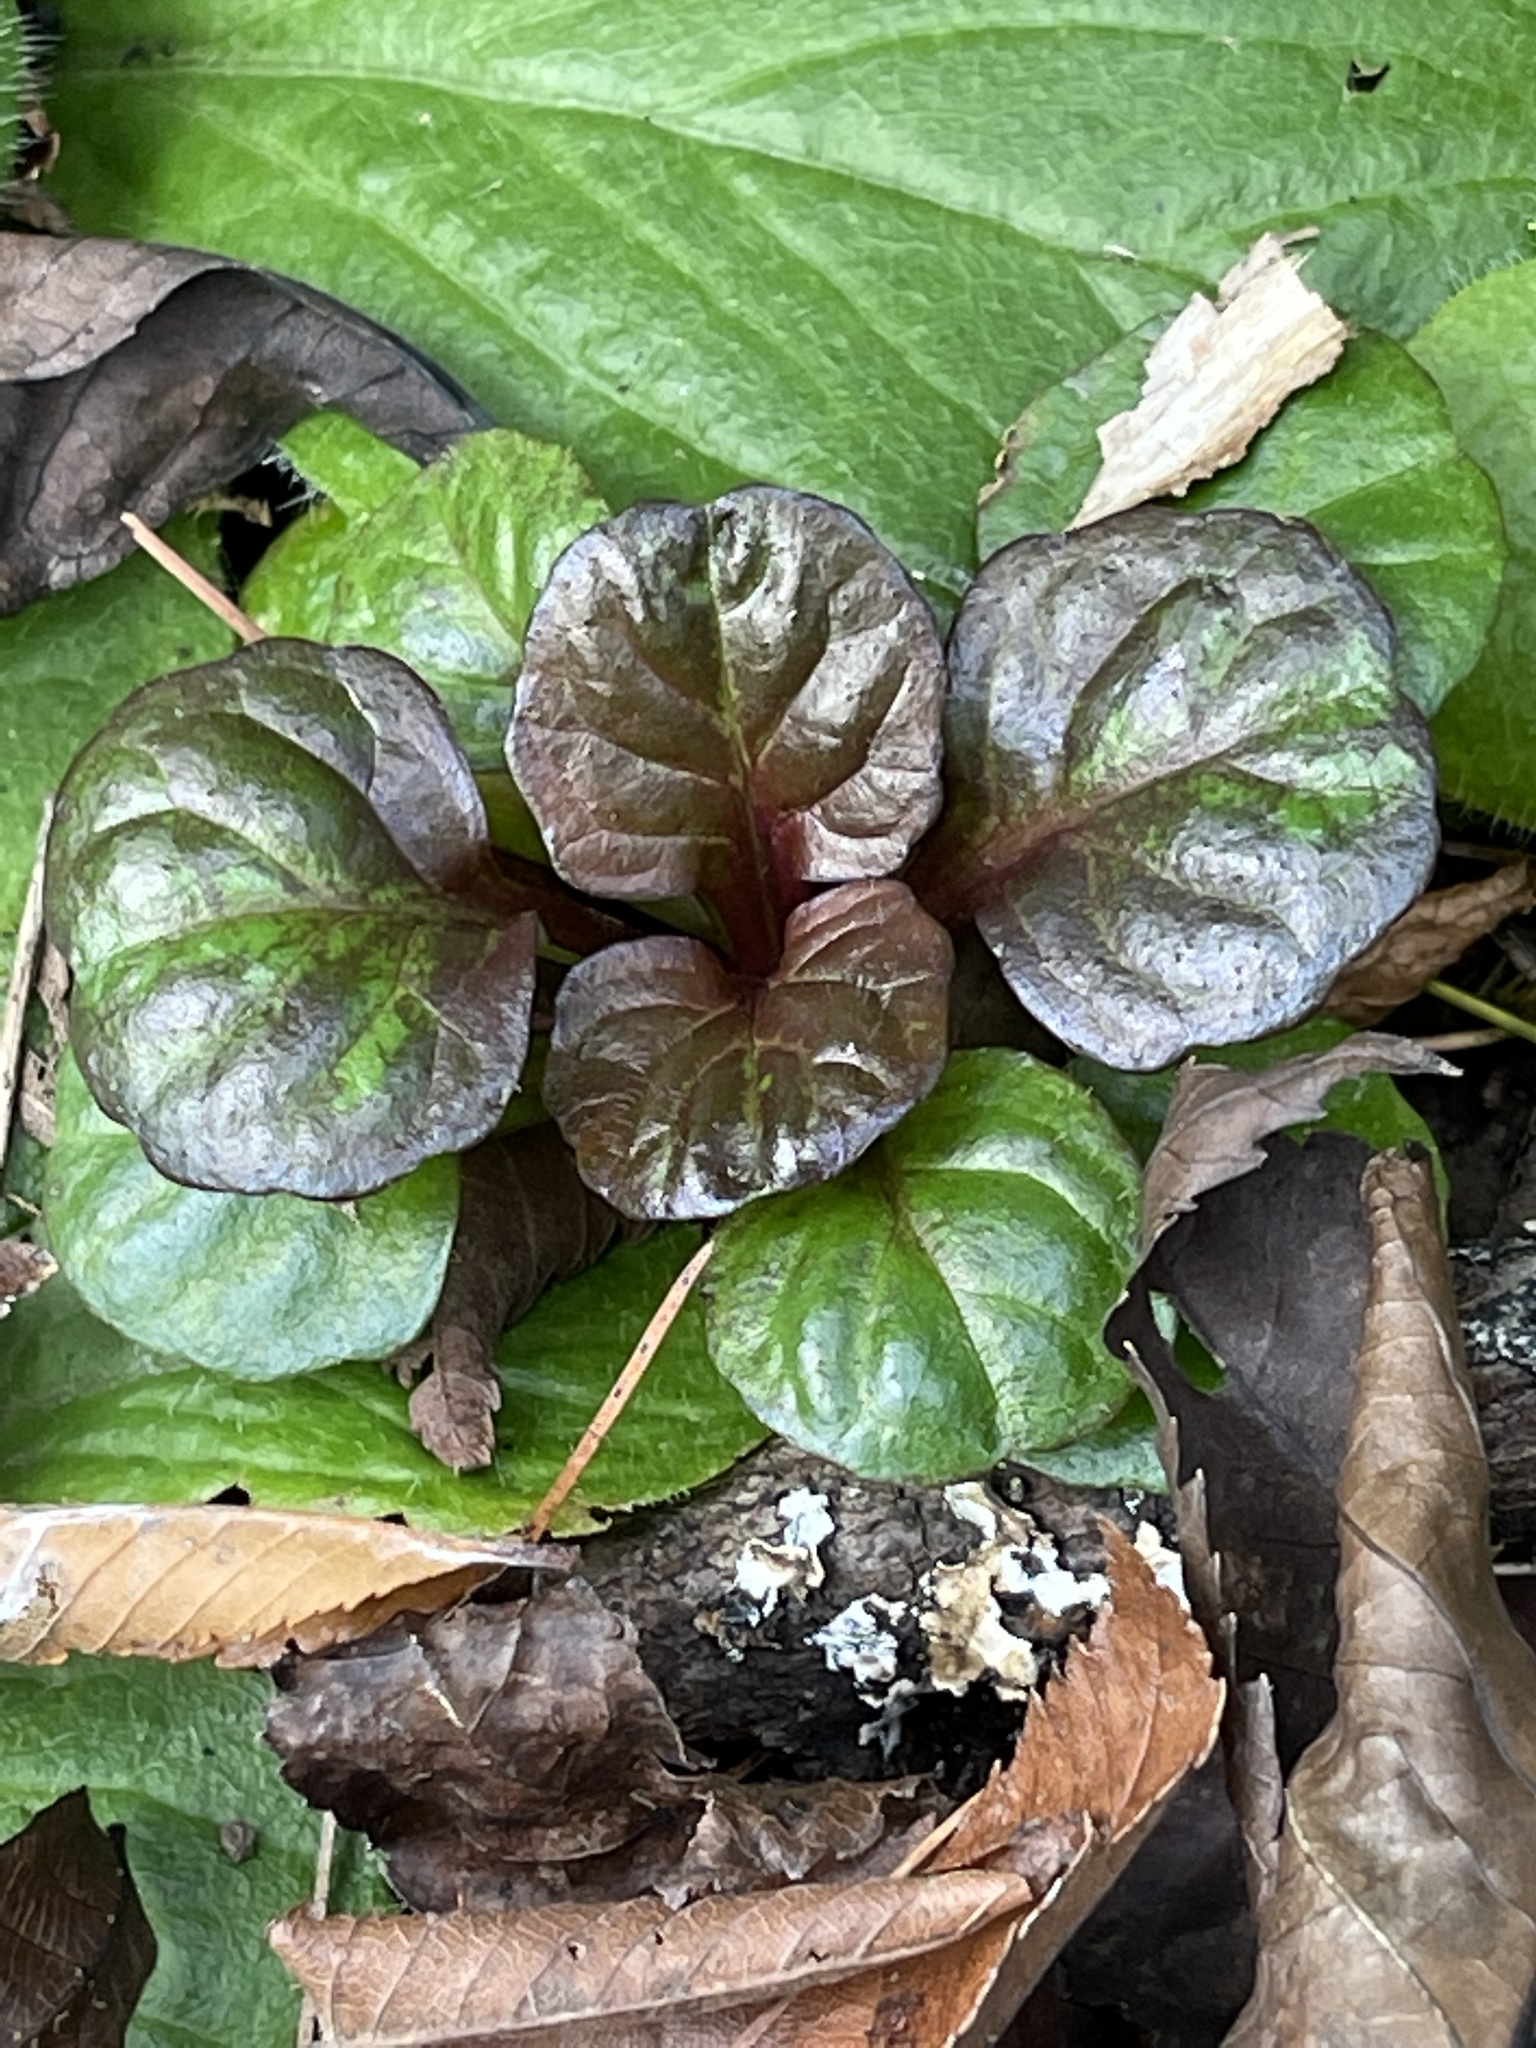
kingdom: Plantae
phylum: Tracheophyta
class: Magnoliopsida
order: Lamiales
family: Lamiaceae
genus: Ajuga
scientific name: Ajuga reptans
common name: Bugle
